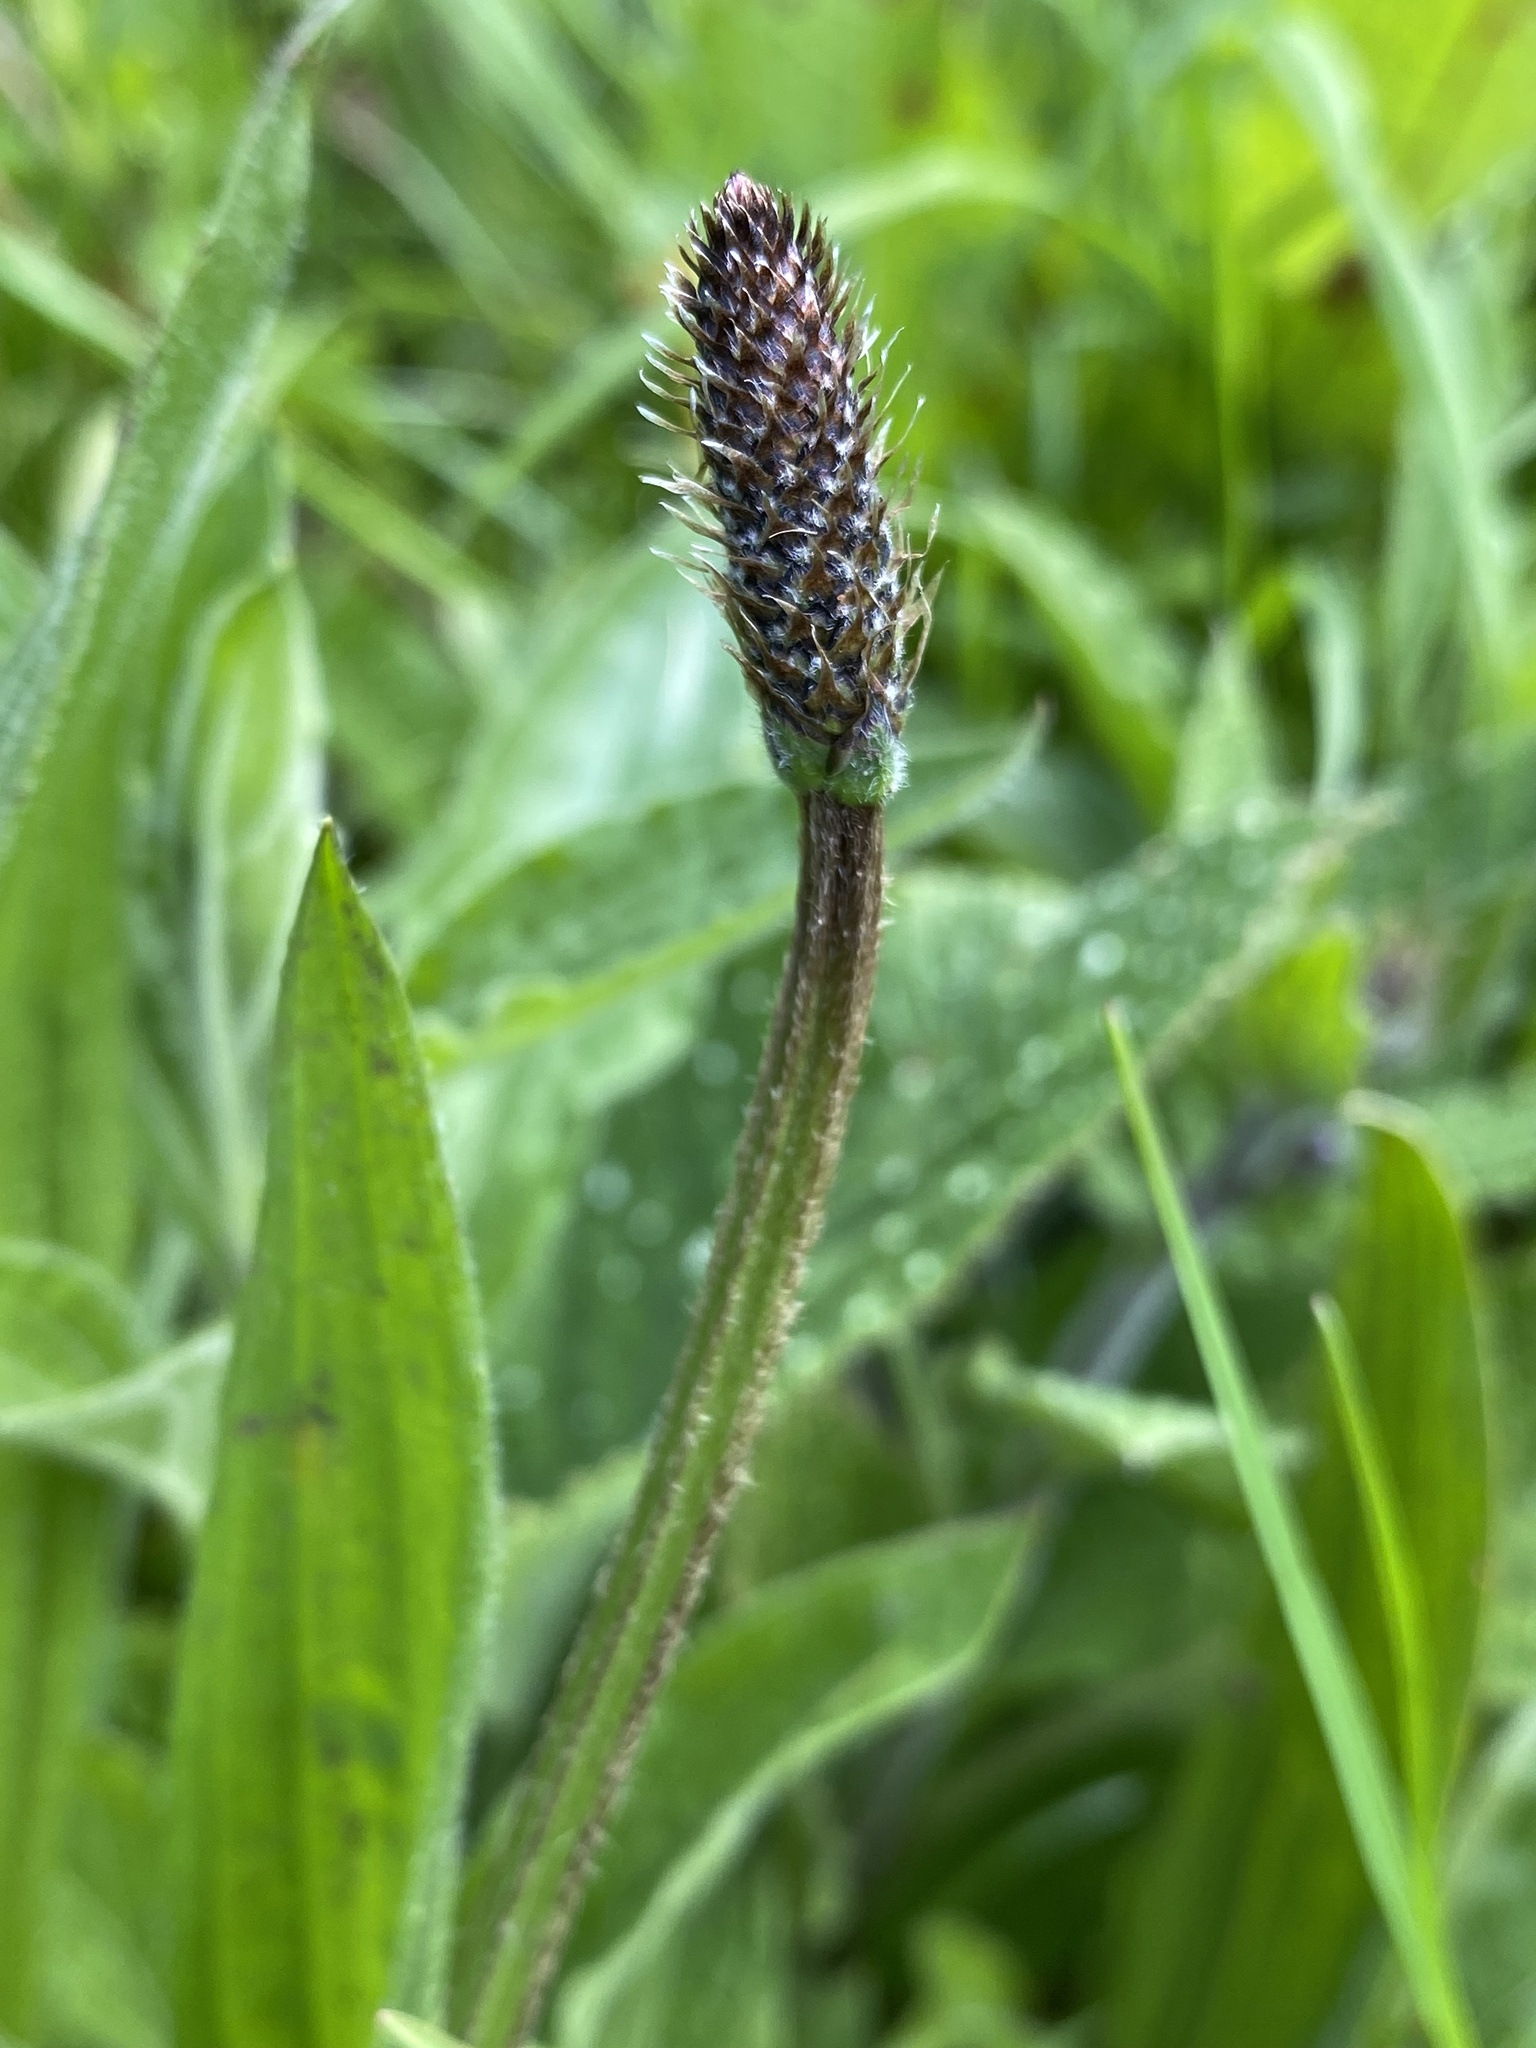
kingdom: Plantae
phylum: Tracheophyta
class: Magnoliopsida
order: Lamiales
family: Plantaginaceae
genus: Plantago
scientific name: Plantago lanceolata
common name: Ribwort plantain
